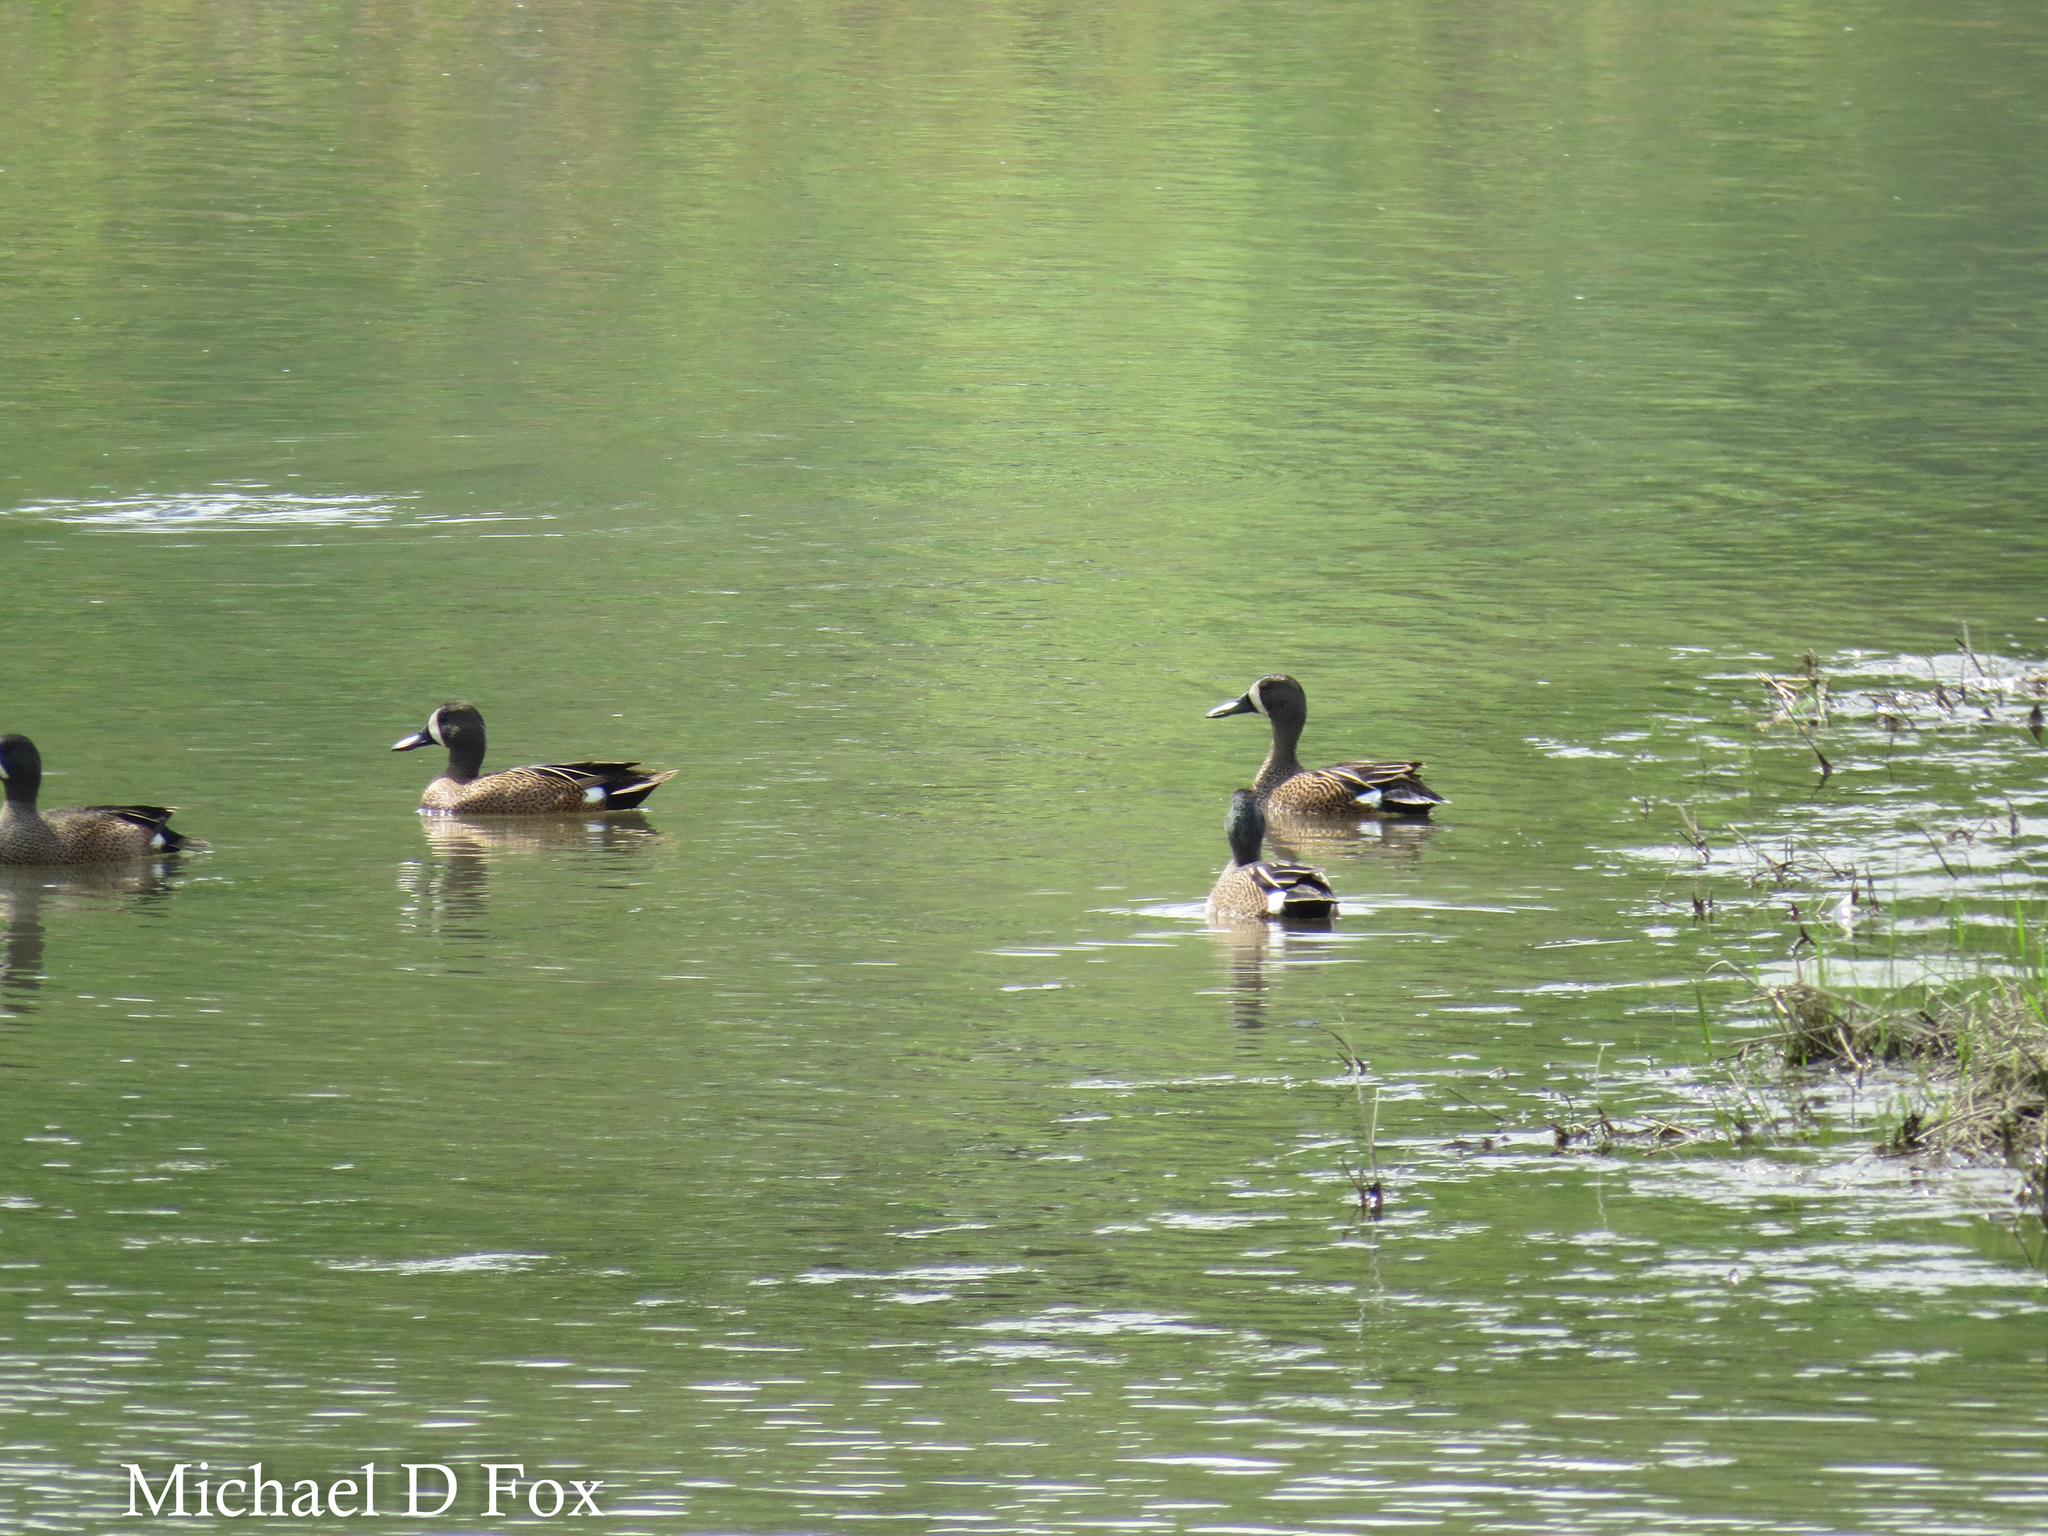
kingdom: Animalia
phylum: Chordata
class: Aves
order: Anseriformes
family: Anatidae
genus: Spatula
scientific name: Spatula discors
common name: Blue-winged teal
